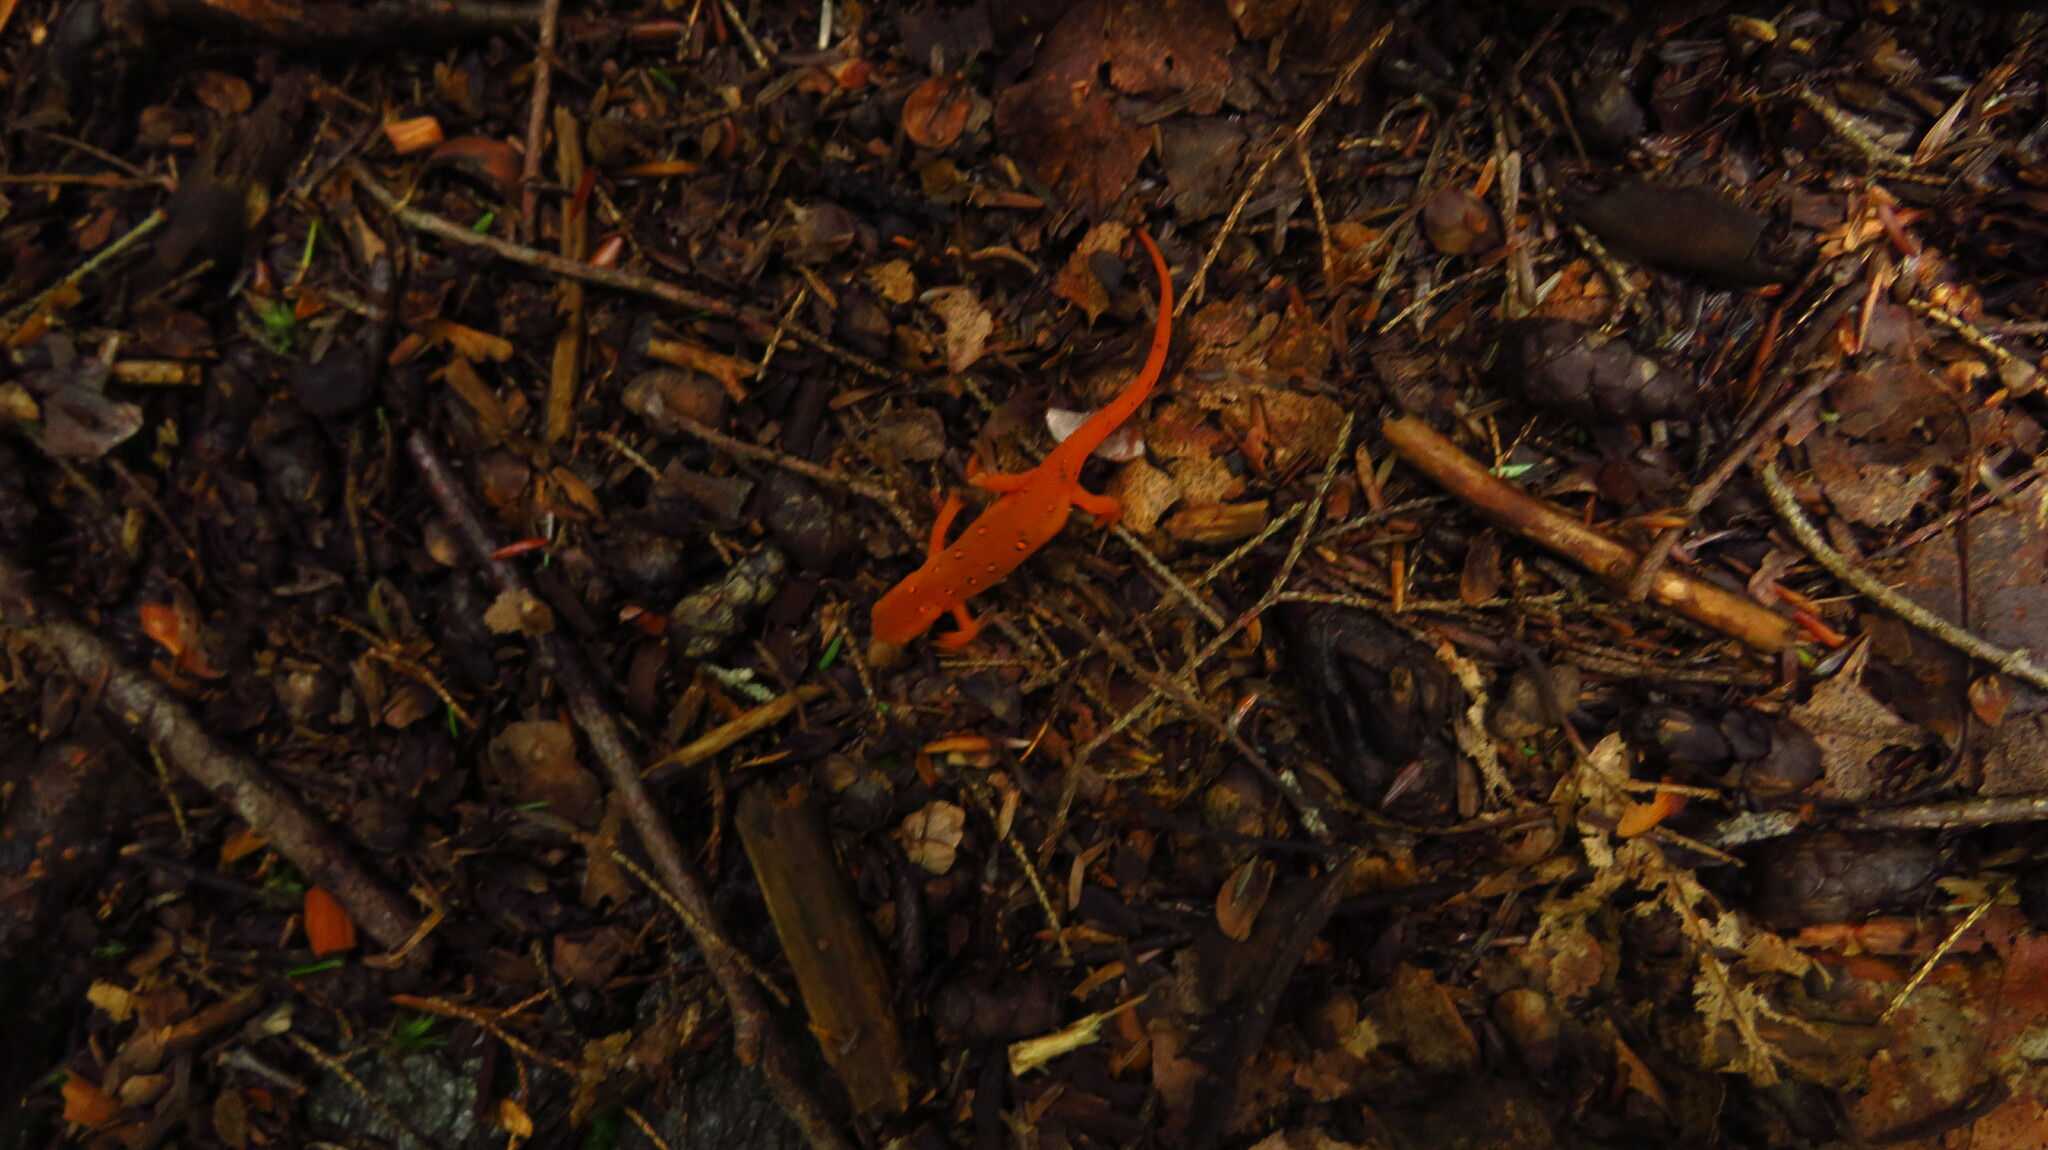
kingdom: Animalia
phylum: Chordata
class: Amphibia
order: Caudata
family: Salamandridae
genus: Notophthalmus
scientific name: Notophthalmus viridescens
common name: Eastern newt
